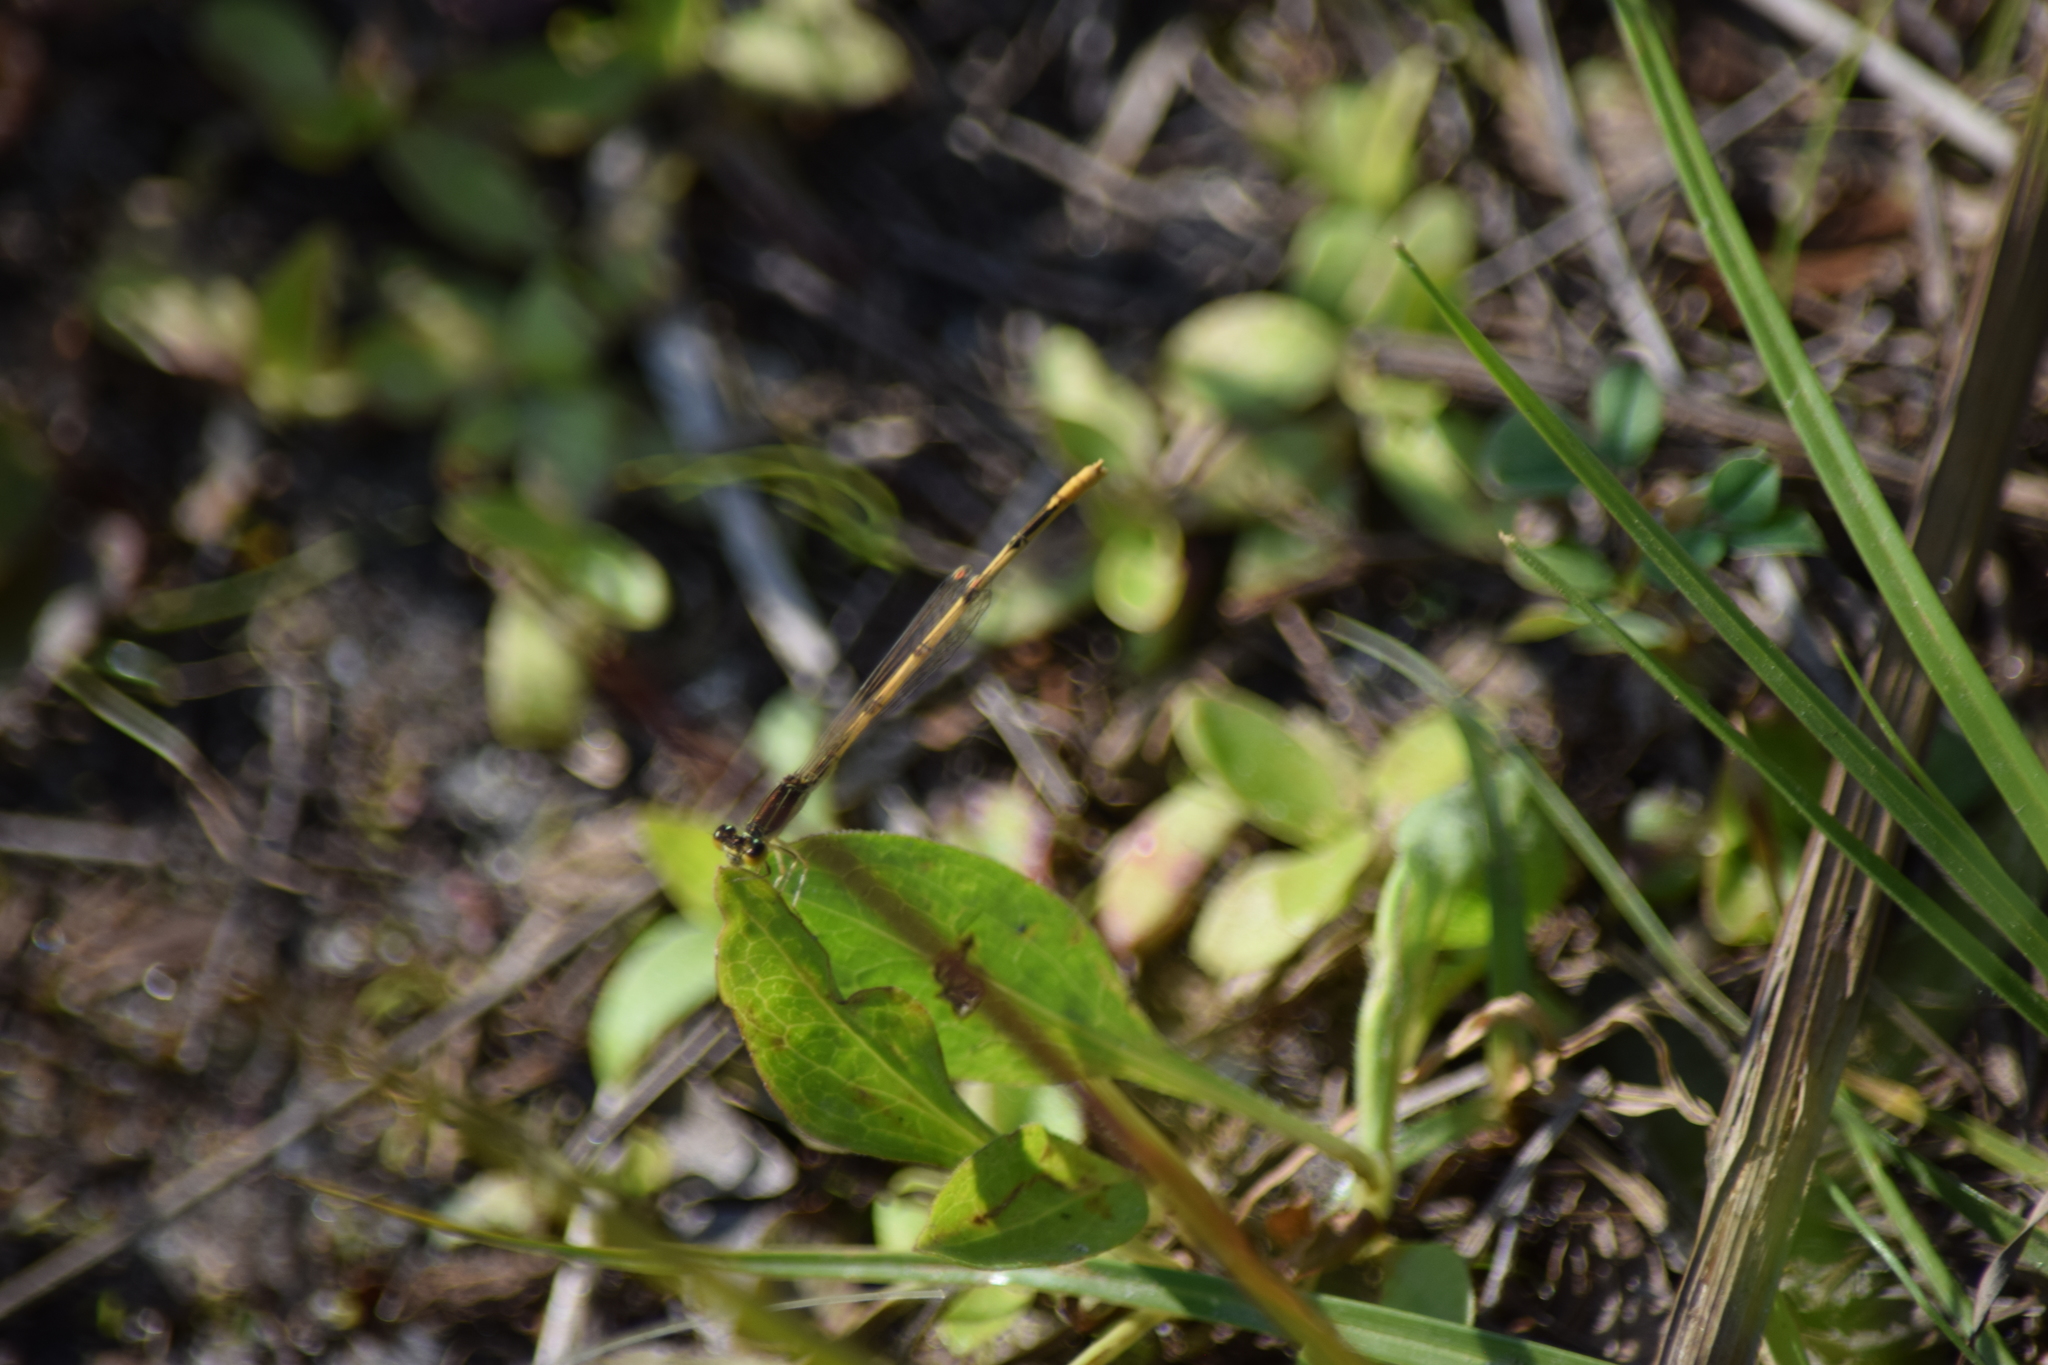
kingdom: Animalia
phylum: Arthropoda
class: Insecta
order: Odonata
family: Coenagrionidae
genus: Ischnura
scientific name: Ischnura hastata
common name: Citrine forktail
